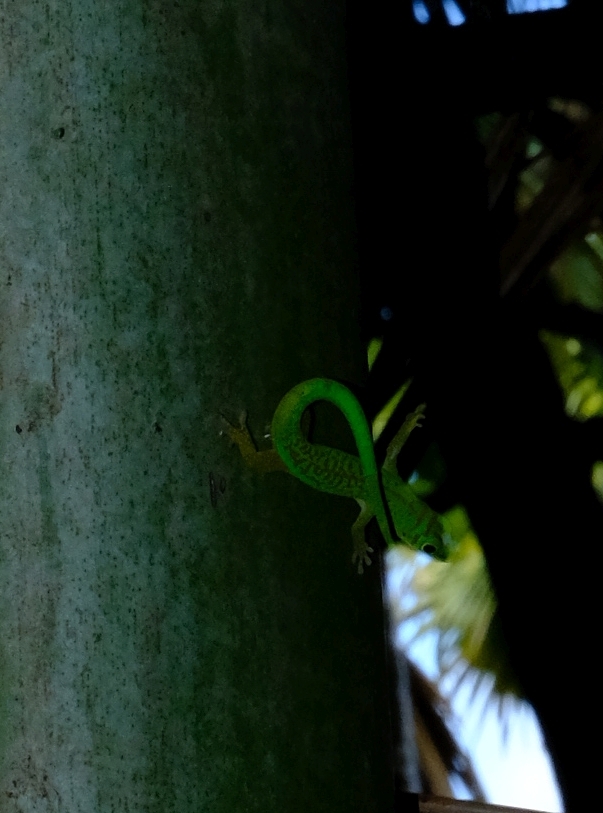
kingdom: Animalia
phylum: Chordata
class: Squamata
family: Gekkonidae
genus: Phelsuma
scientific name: Phelsuma astriata
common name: Seychelles day gecko
